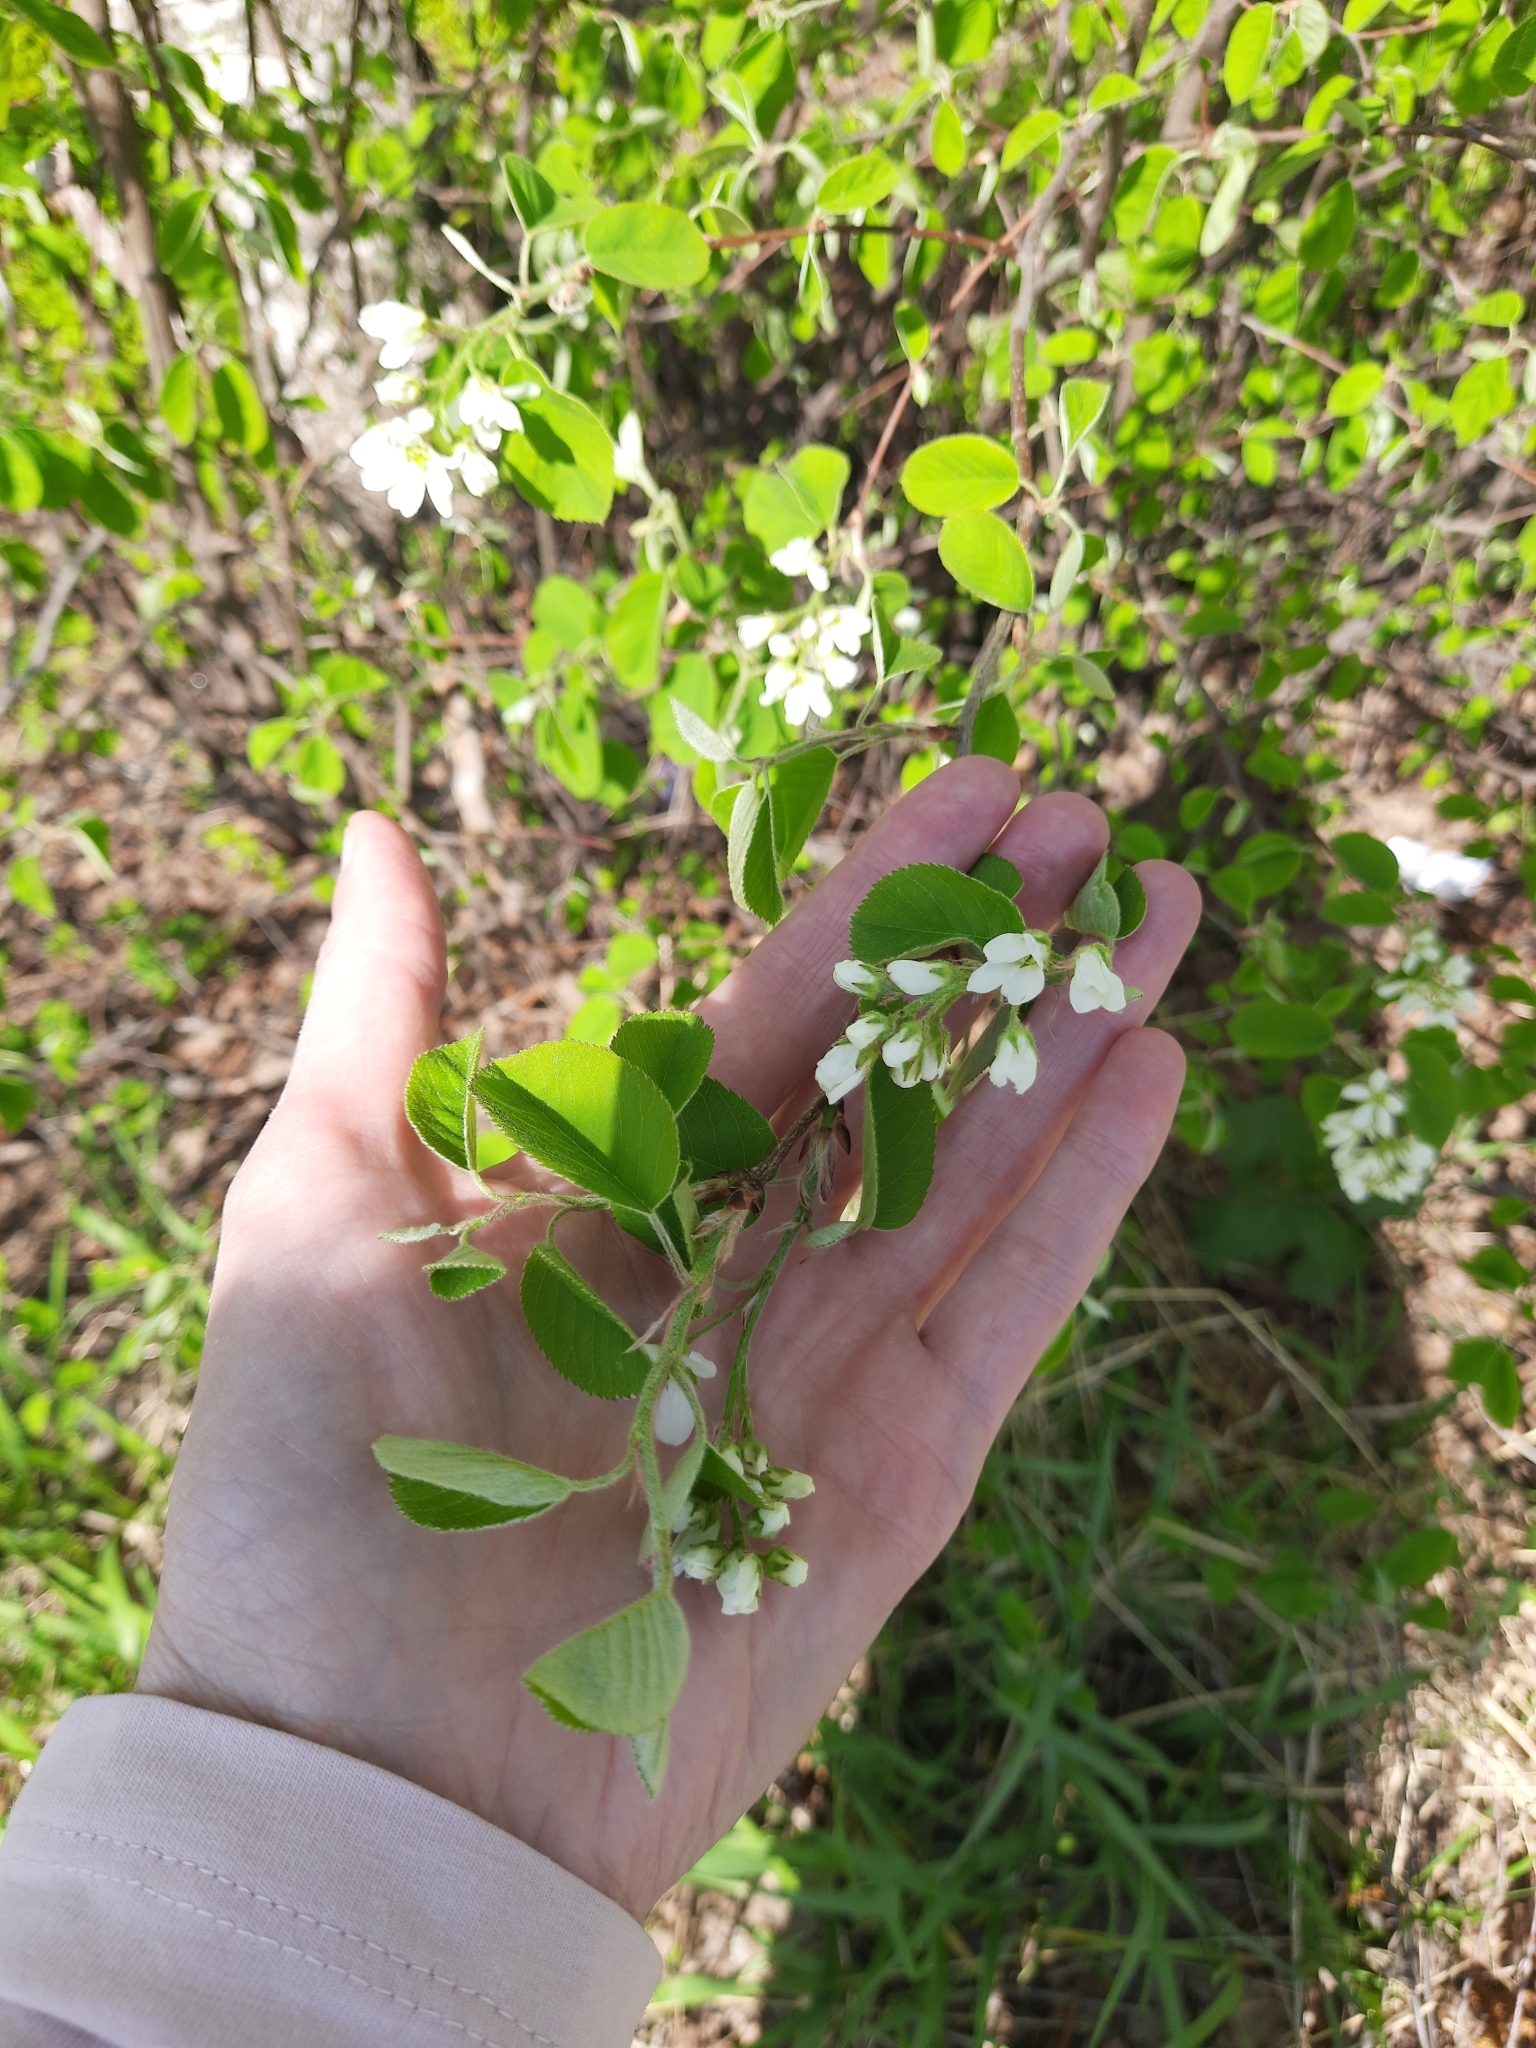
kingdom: Plantae
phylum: Tracheophyta
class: Magnoliopsida
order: Rosales
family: Rosaceae
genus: Amelanchier
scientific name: Amelanchier
